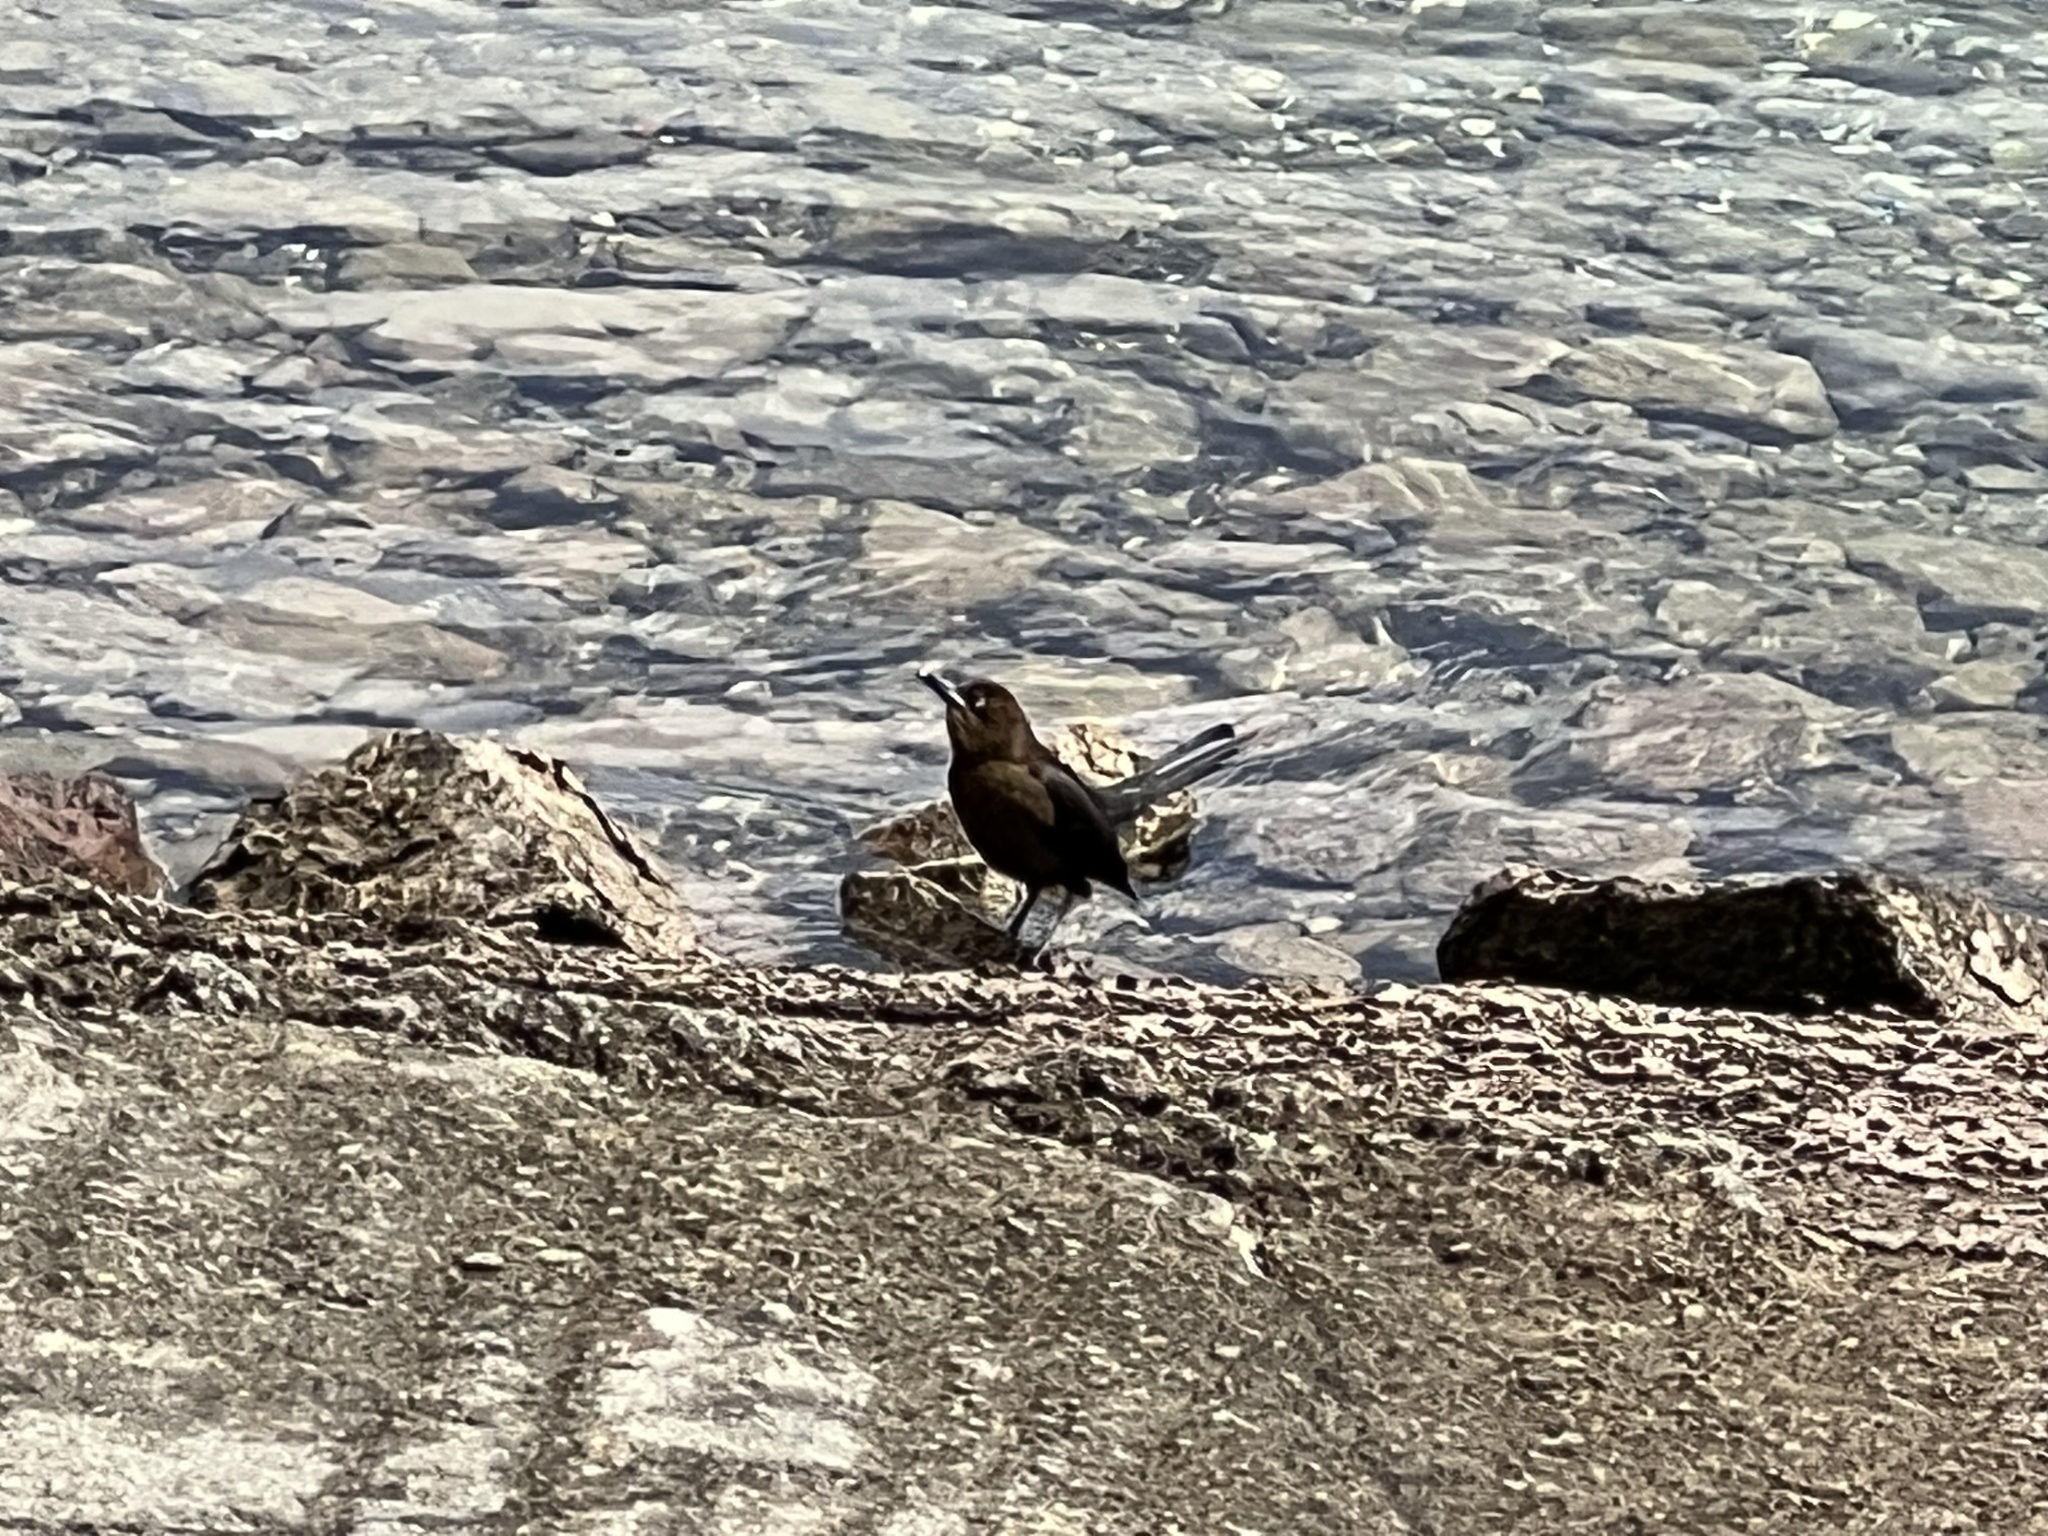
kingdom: Animalia
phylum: Chordata
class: Aves
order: Passeriformes
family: Icteridae
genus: Quiscalus
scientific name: Quiscalus mexicanus
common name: Great-tailed grackle
